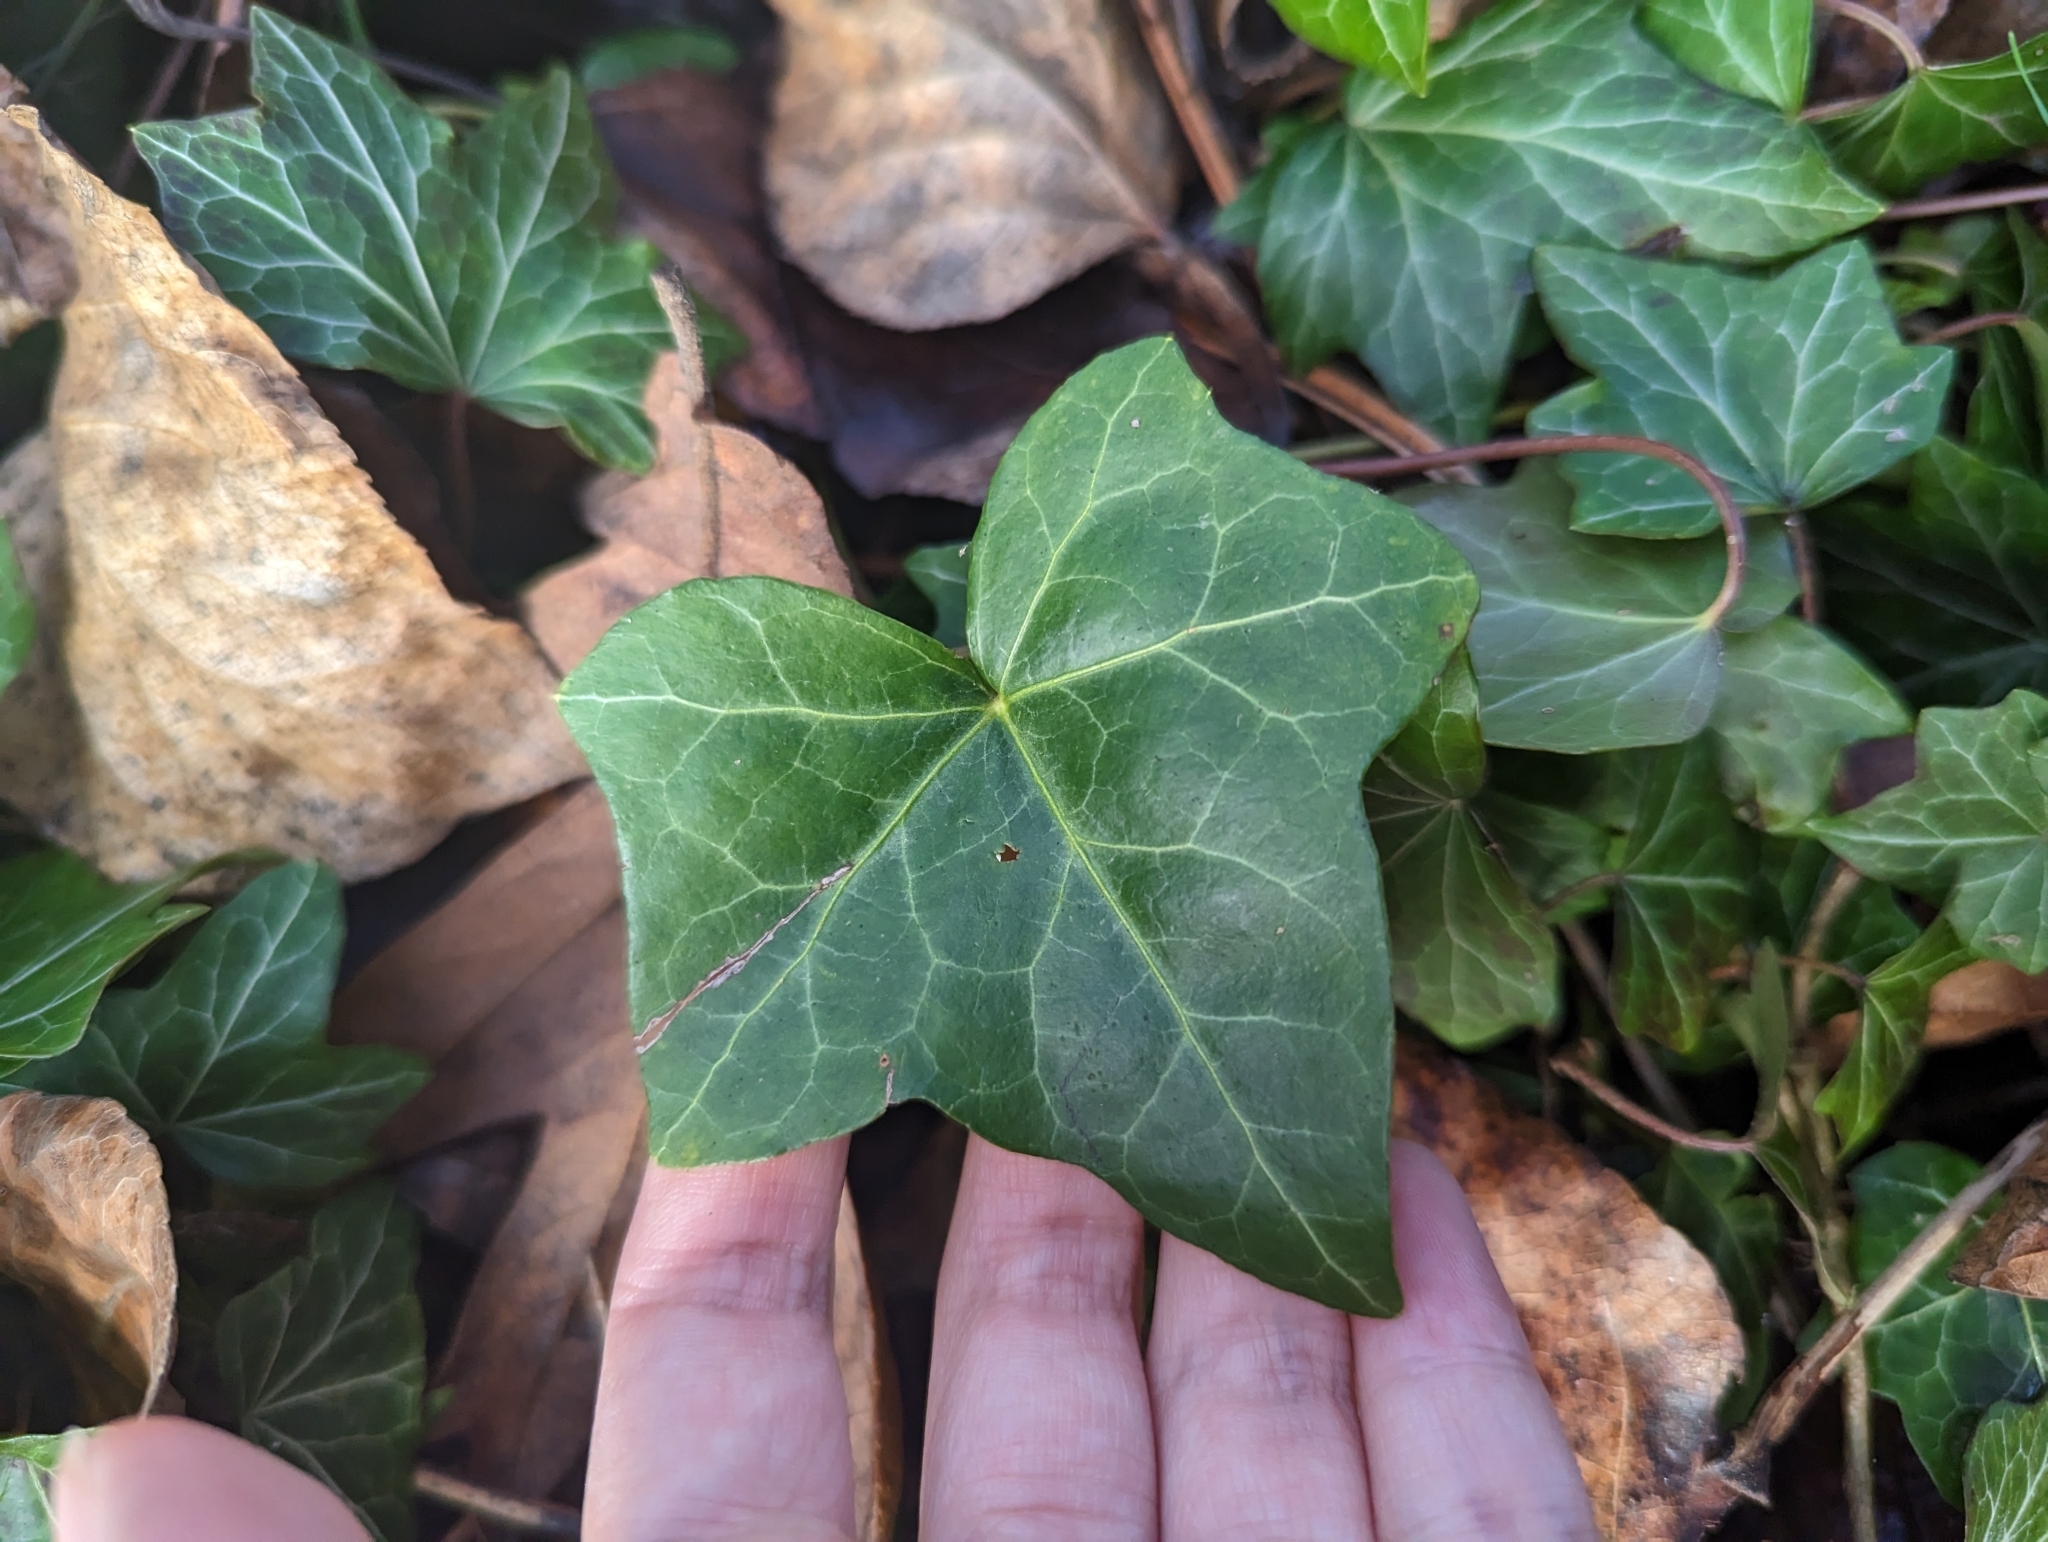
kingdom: Plantae
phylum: Tracheophyta
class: Magnoliopsida
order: Apiales
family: Araliaceae
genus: Hedera
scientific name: Hedera helix
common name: Ivy
